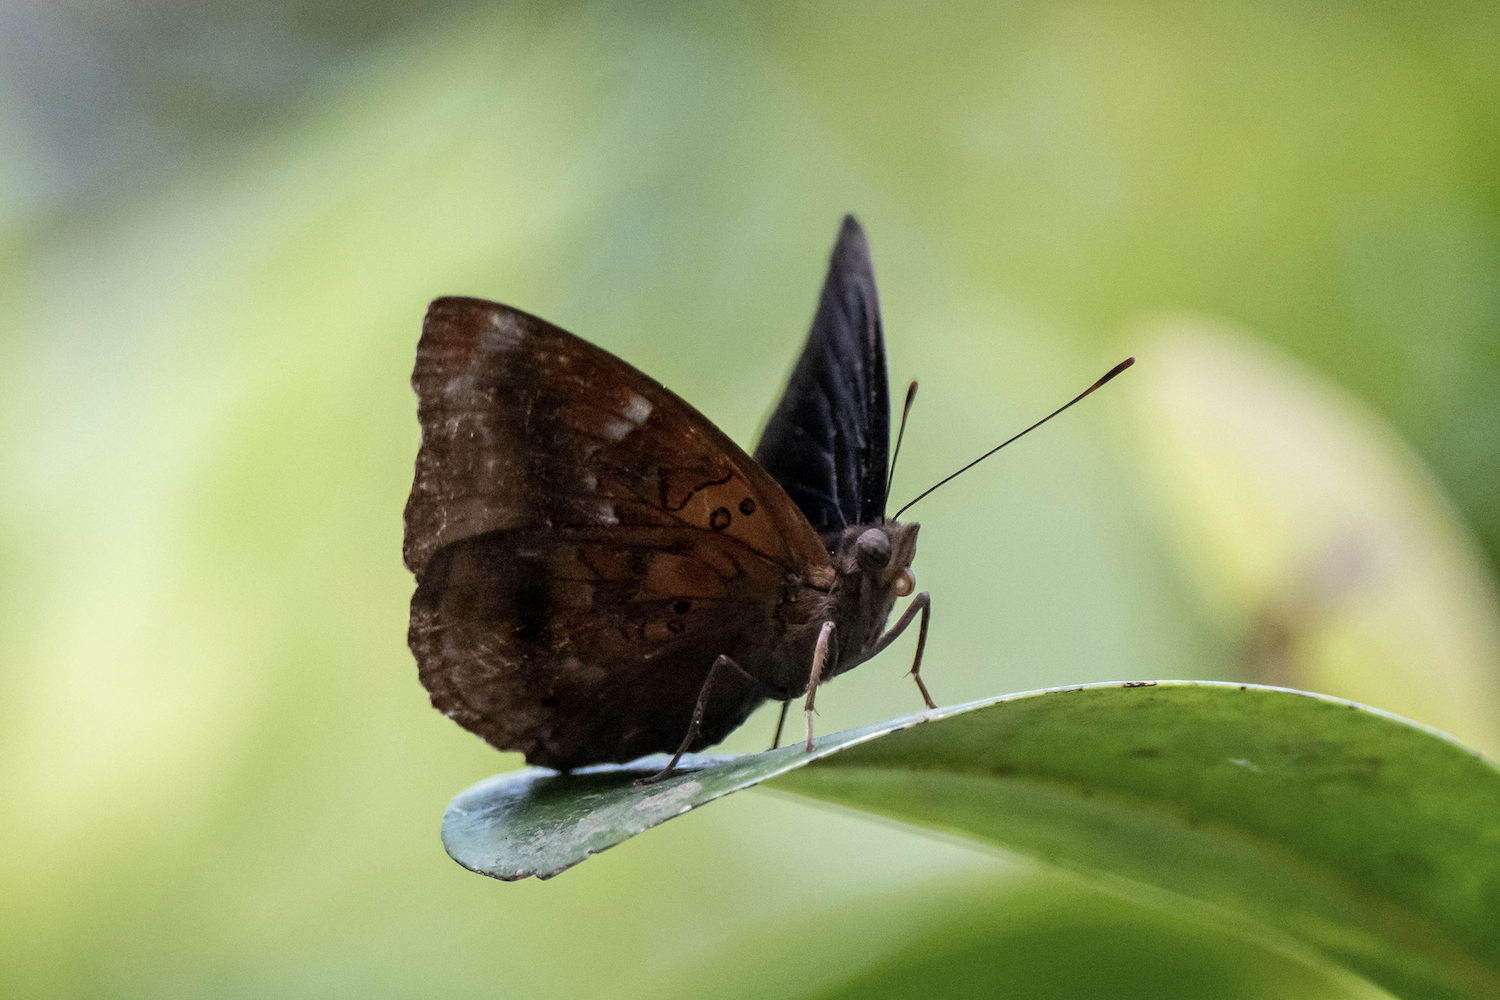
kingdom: Animalia
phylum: Arthropoda
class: Insecta
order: Lepidoptera
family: Nymphalidae
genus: Apatura
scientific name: Apatura Rohana spec
